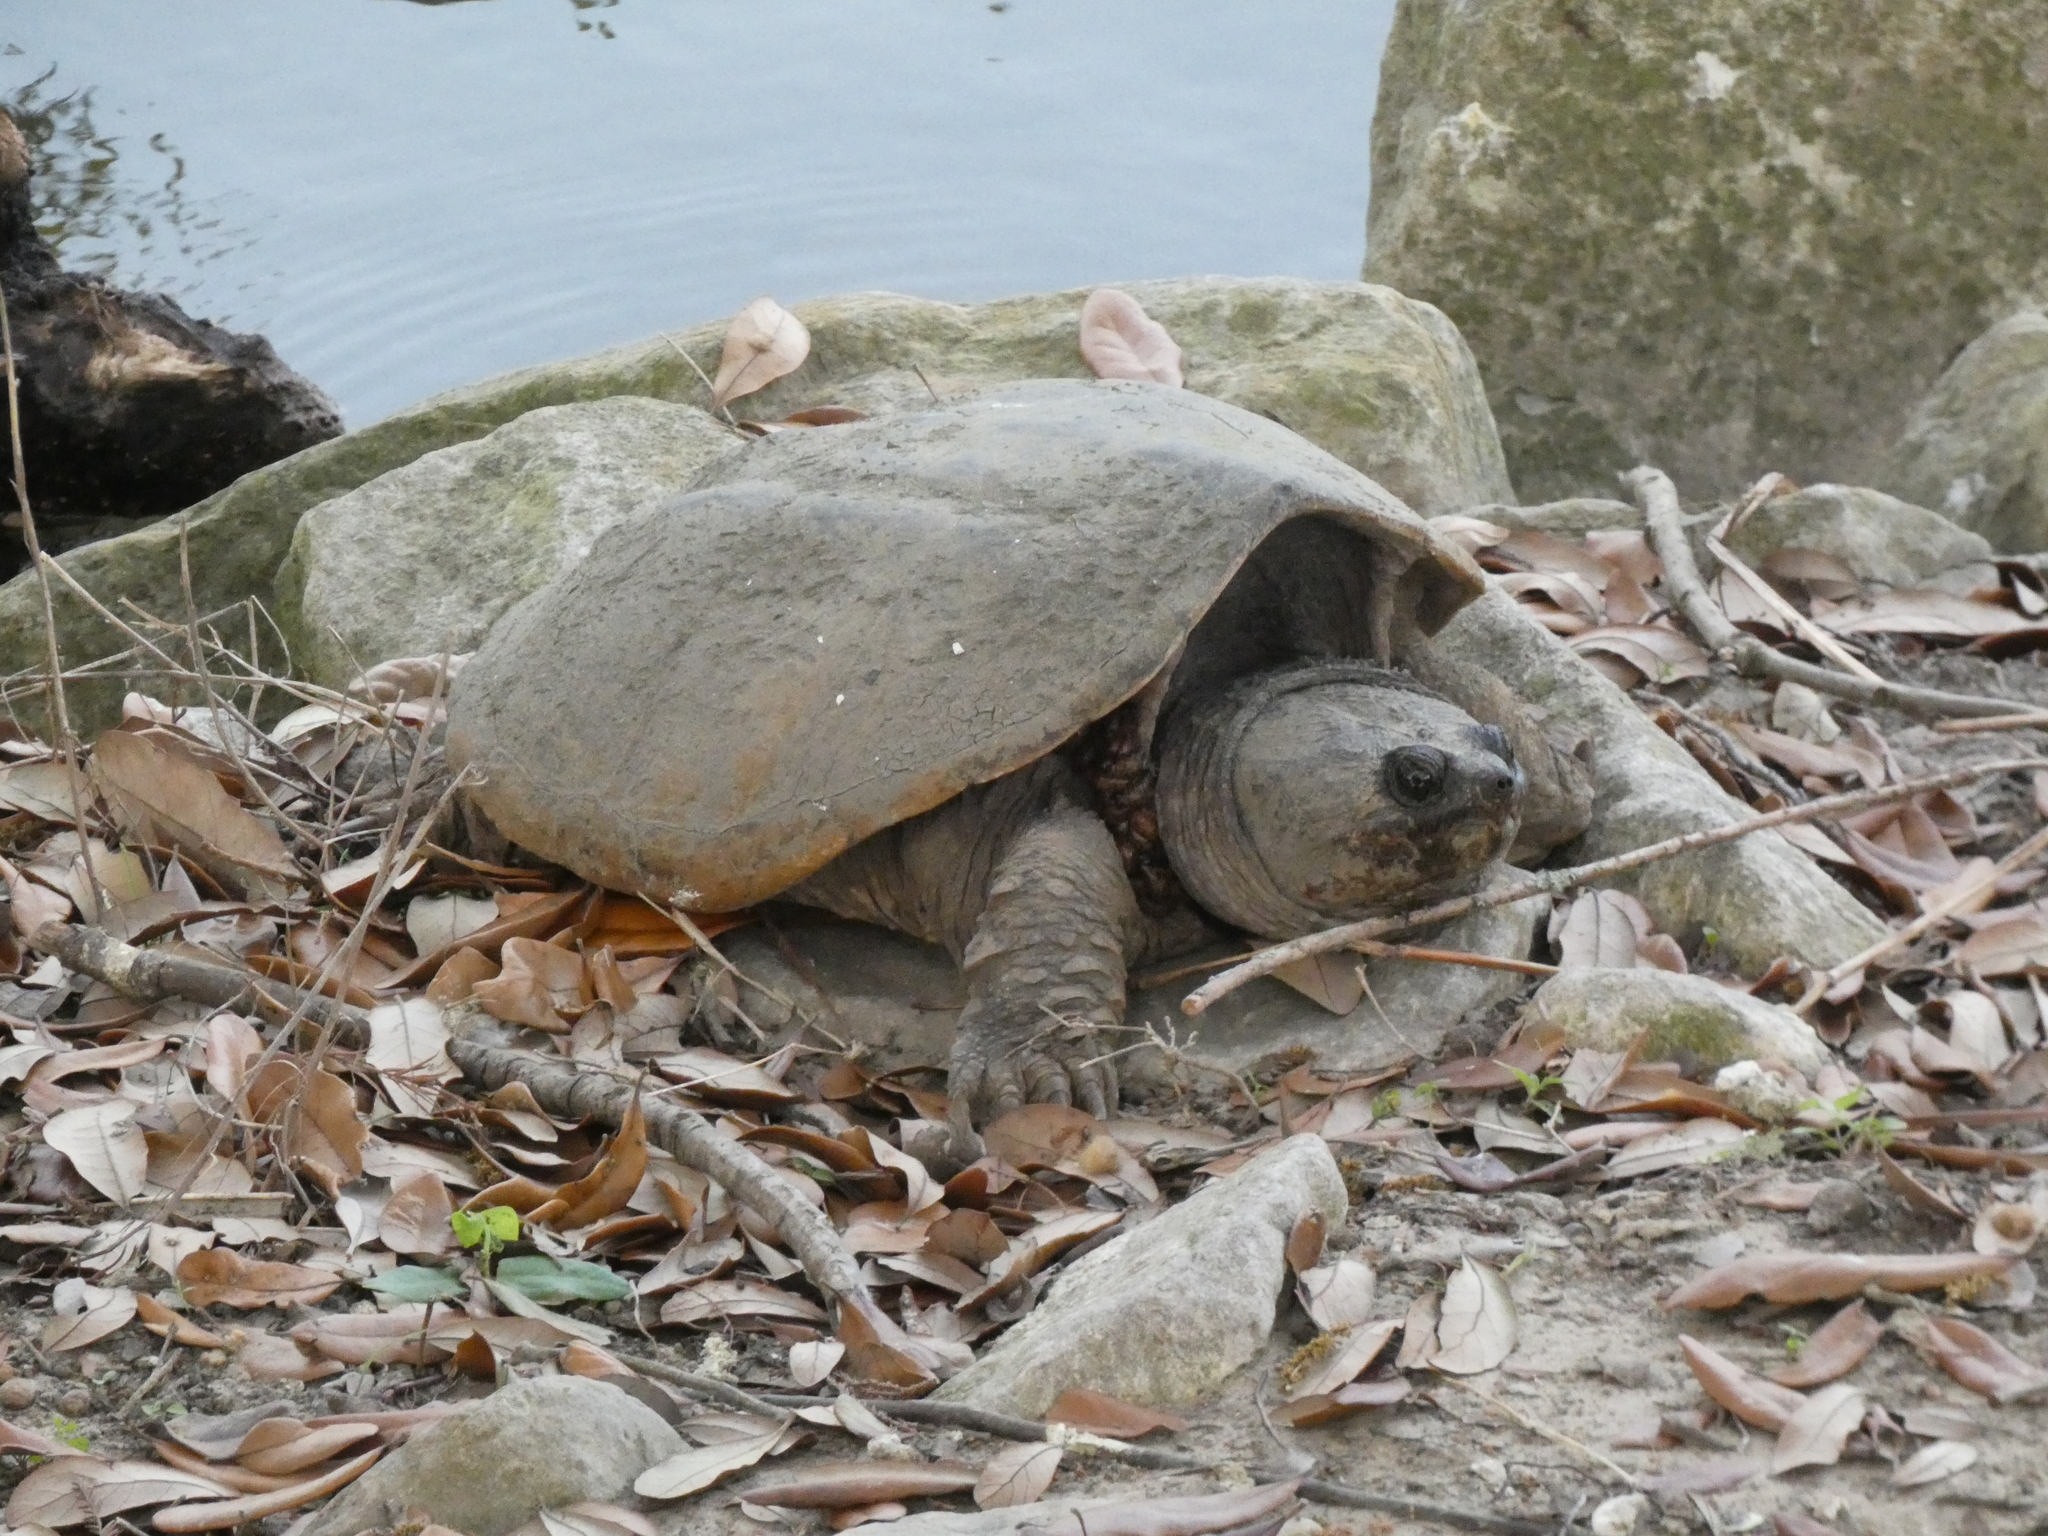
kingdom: Animalia
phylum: Chordata
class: Testudines
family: Chelydridae
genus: Chelydra
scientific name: Chelydra serpentina
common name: Common snapping turtle
